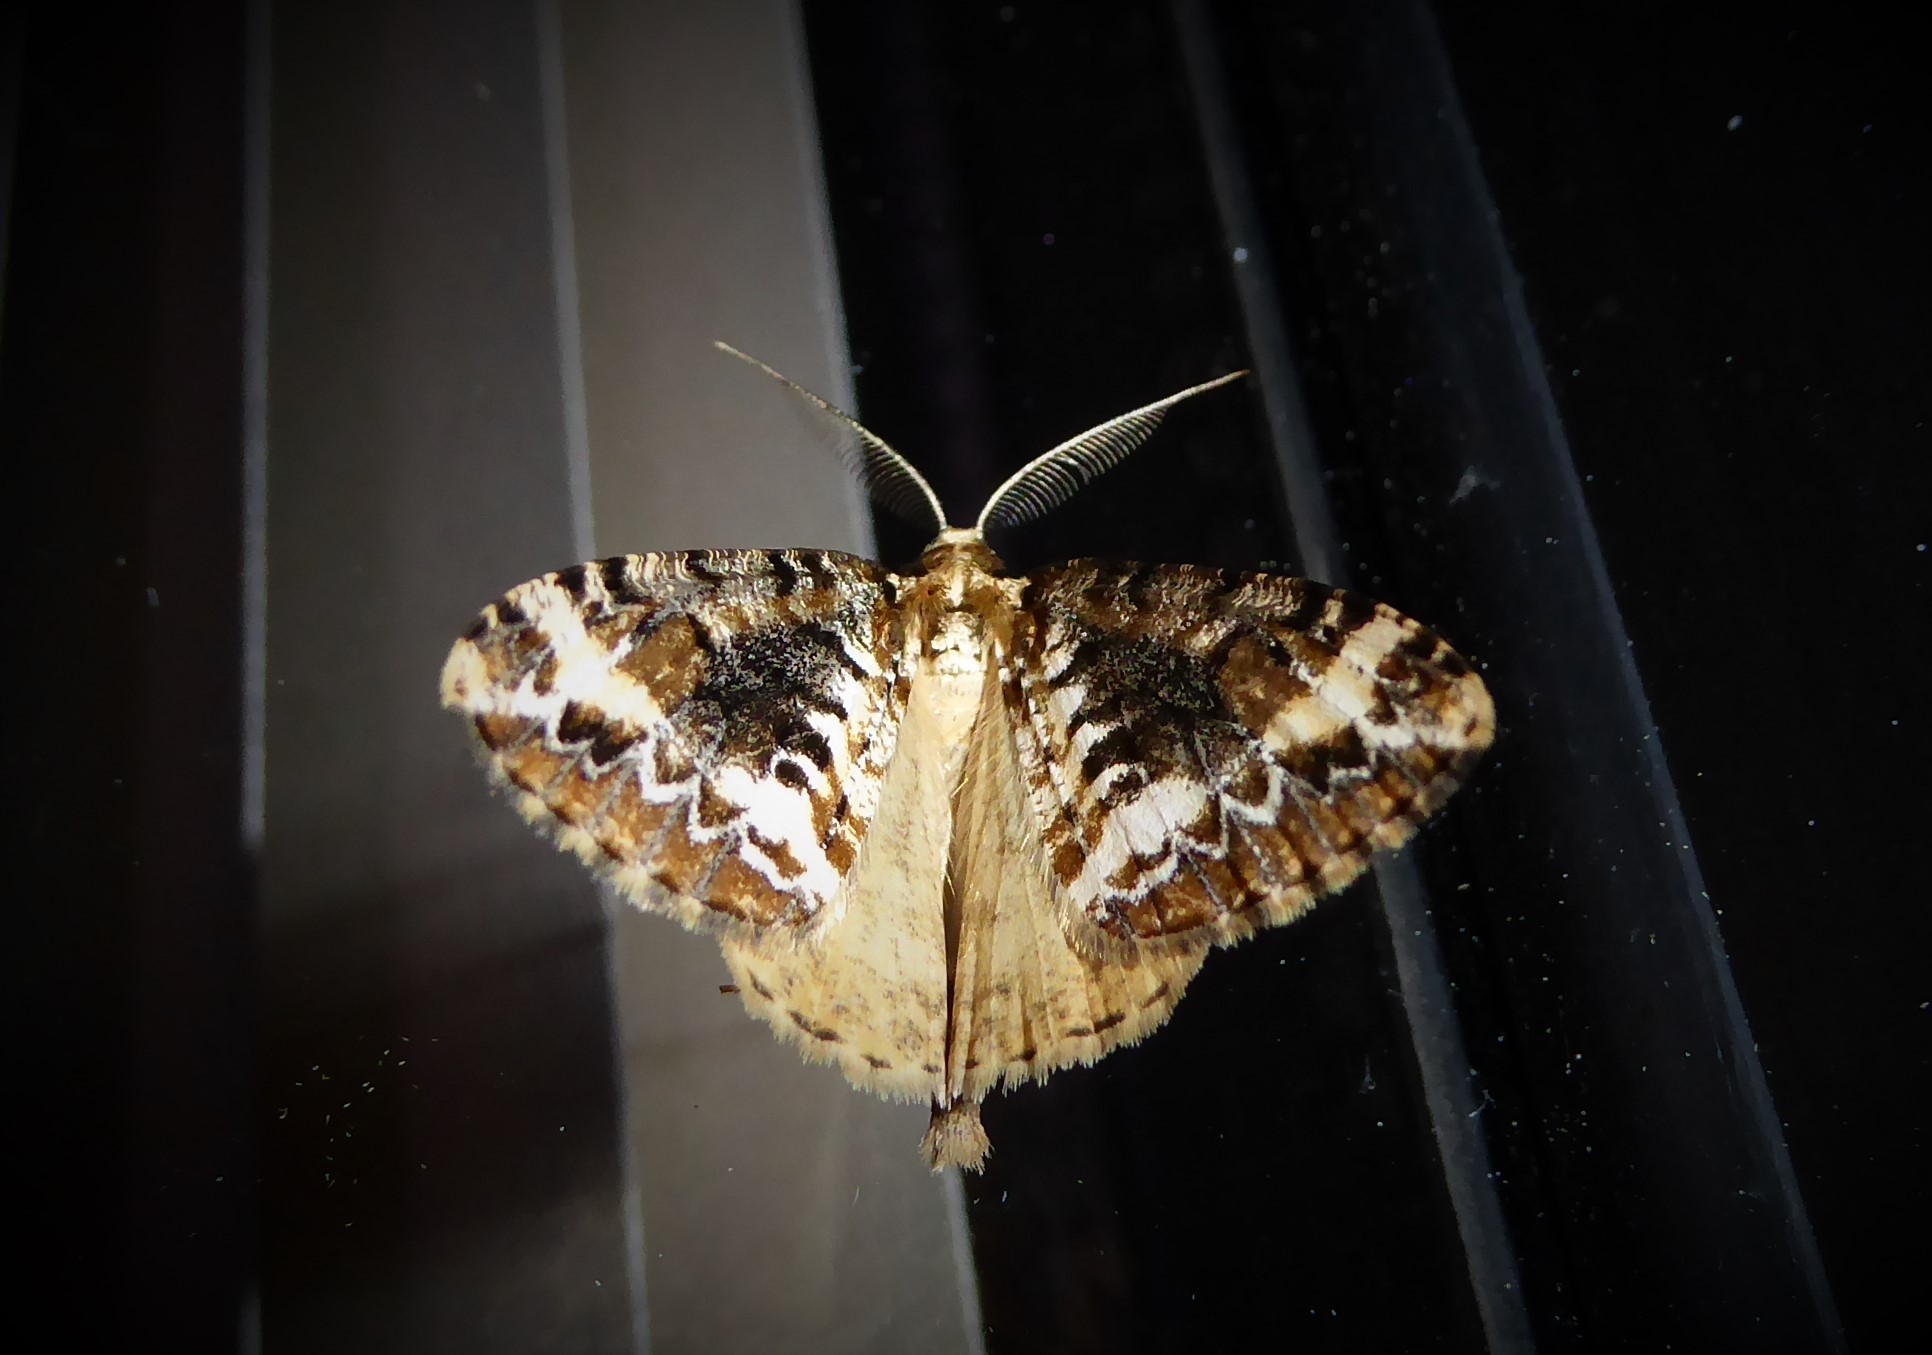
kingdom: Animalia
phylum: Arthropoda
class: Insecta
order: Lepidoptera
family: Geometridae
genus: Pseudocoremia
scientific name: Pseudocoremia leucelaea
